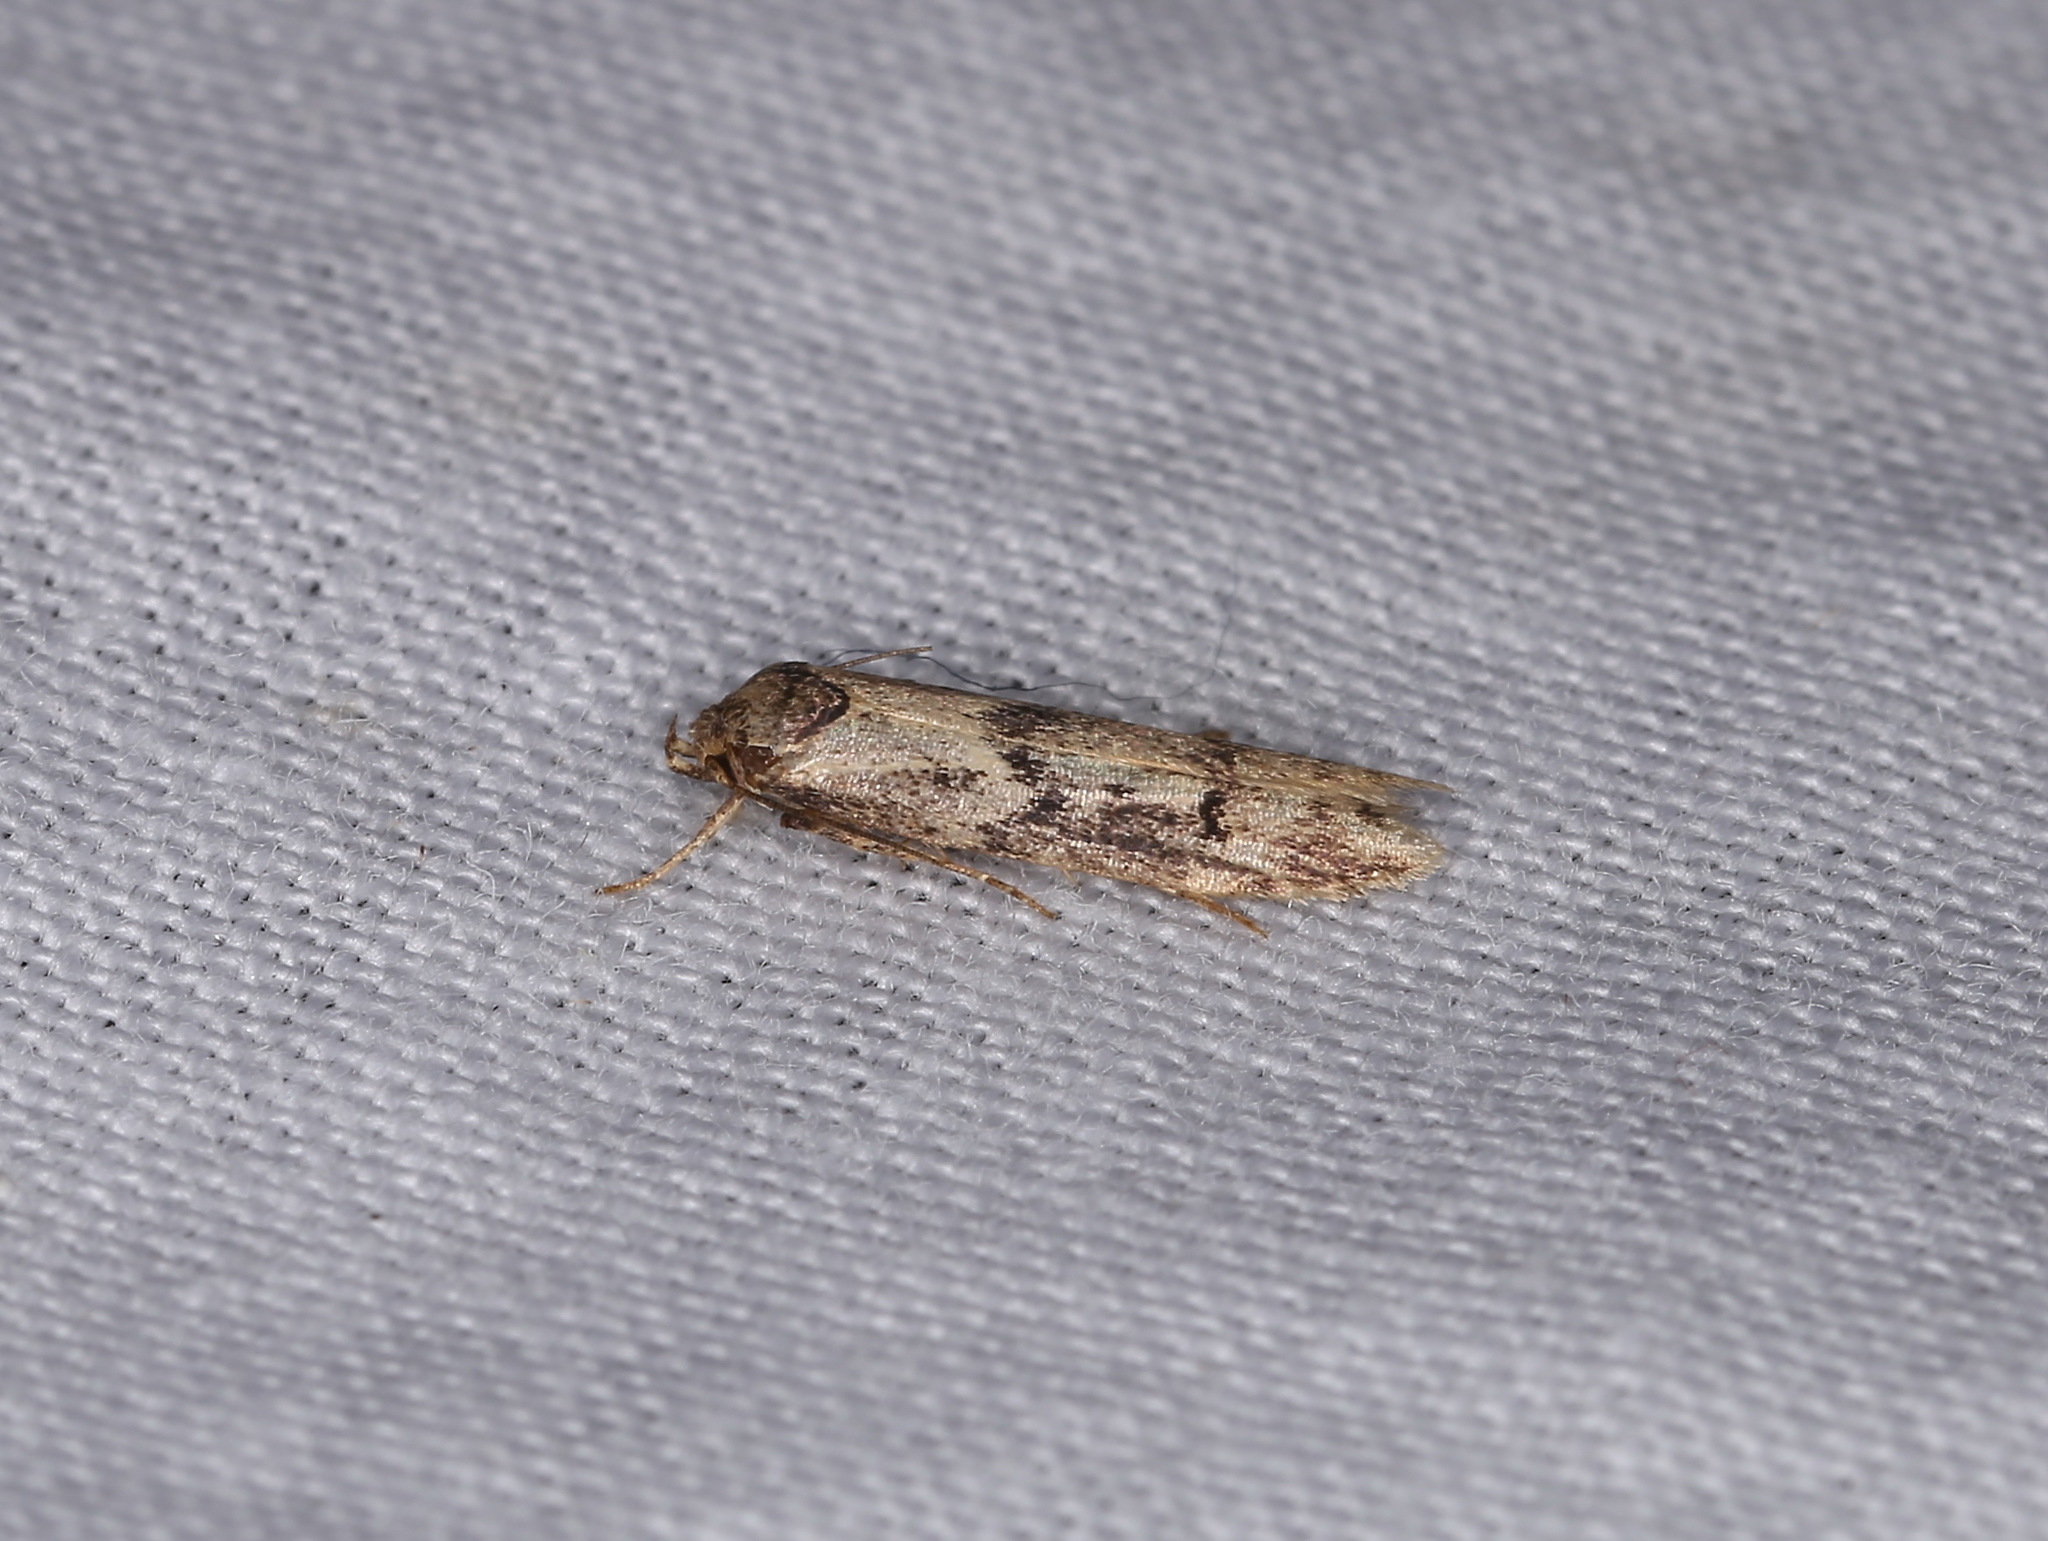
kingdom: Animalia
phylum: Arthropoda
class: Insecta
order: Lepidoptera
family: Blastobasidae
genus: Blastobasis
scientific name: Blastobasis adustella
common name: Dingy dowd
